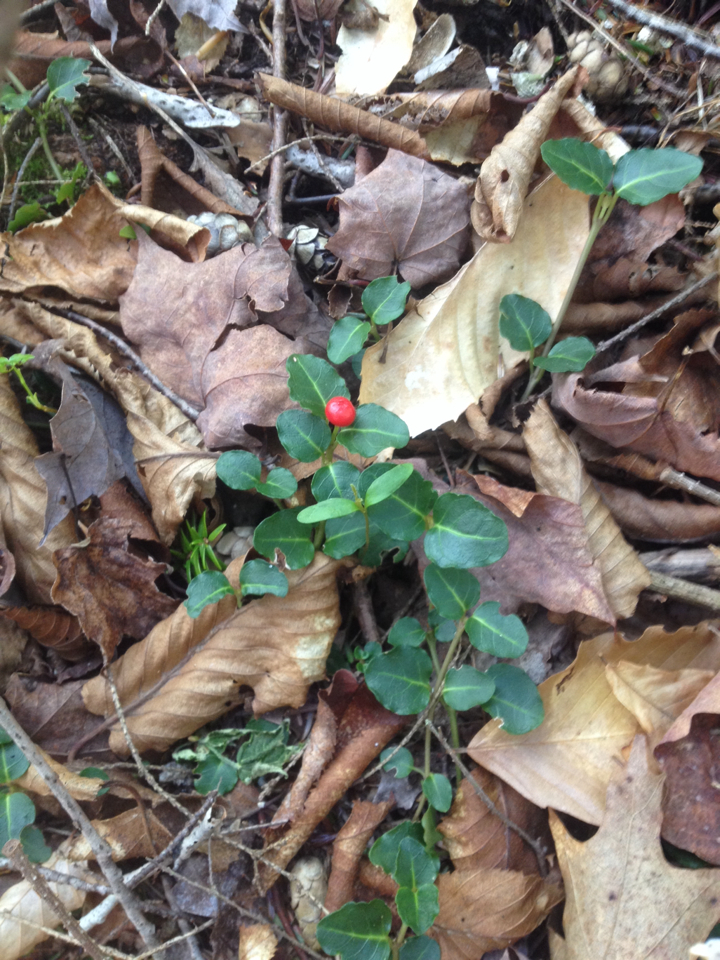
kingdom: Plantae
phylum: Tracheophyta
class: Magnoliopsida
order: Gentianales
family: Rubiaceae
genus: Mitchella
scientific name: Mitchella repens
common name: Partridge-berry
